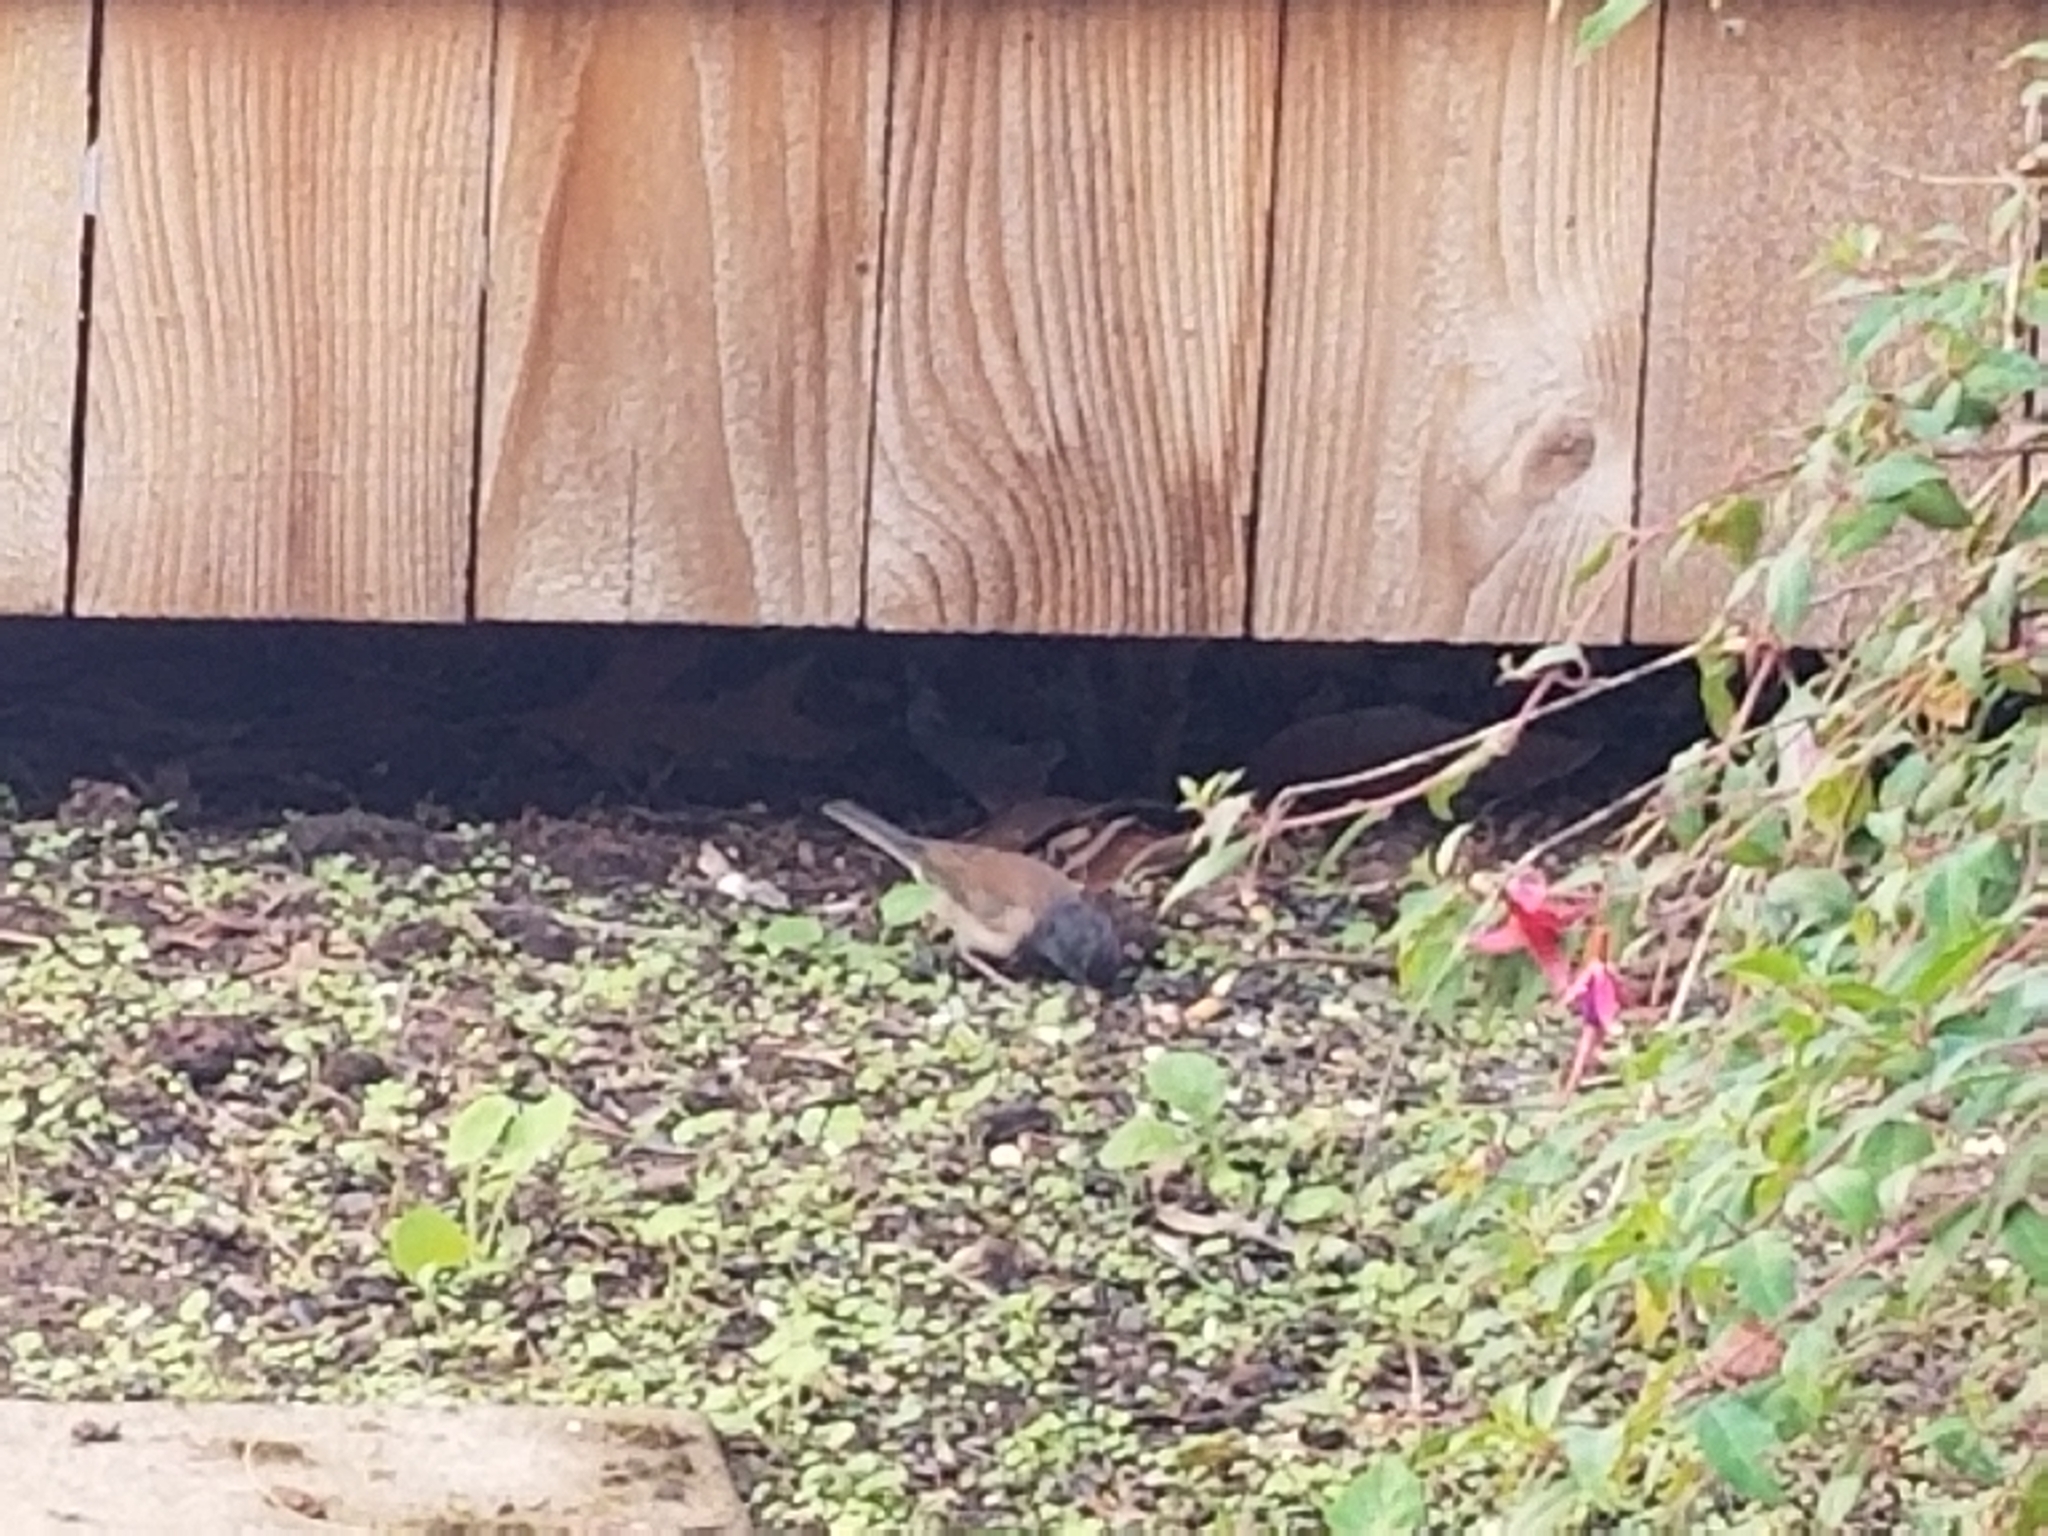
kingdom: Animalia
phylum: Chordata
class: Aves
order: Passeriformes
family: Passerellidae
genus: Junco
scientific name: Junco hyemalis
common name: Dark-eyed junco
